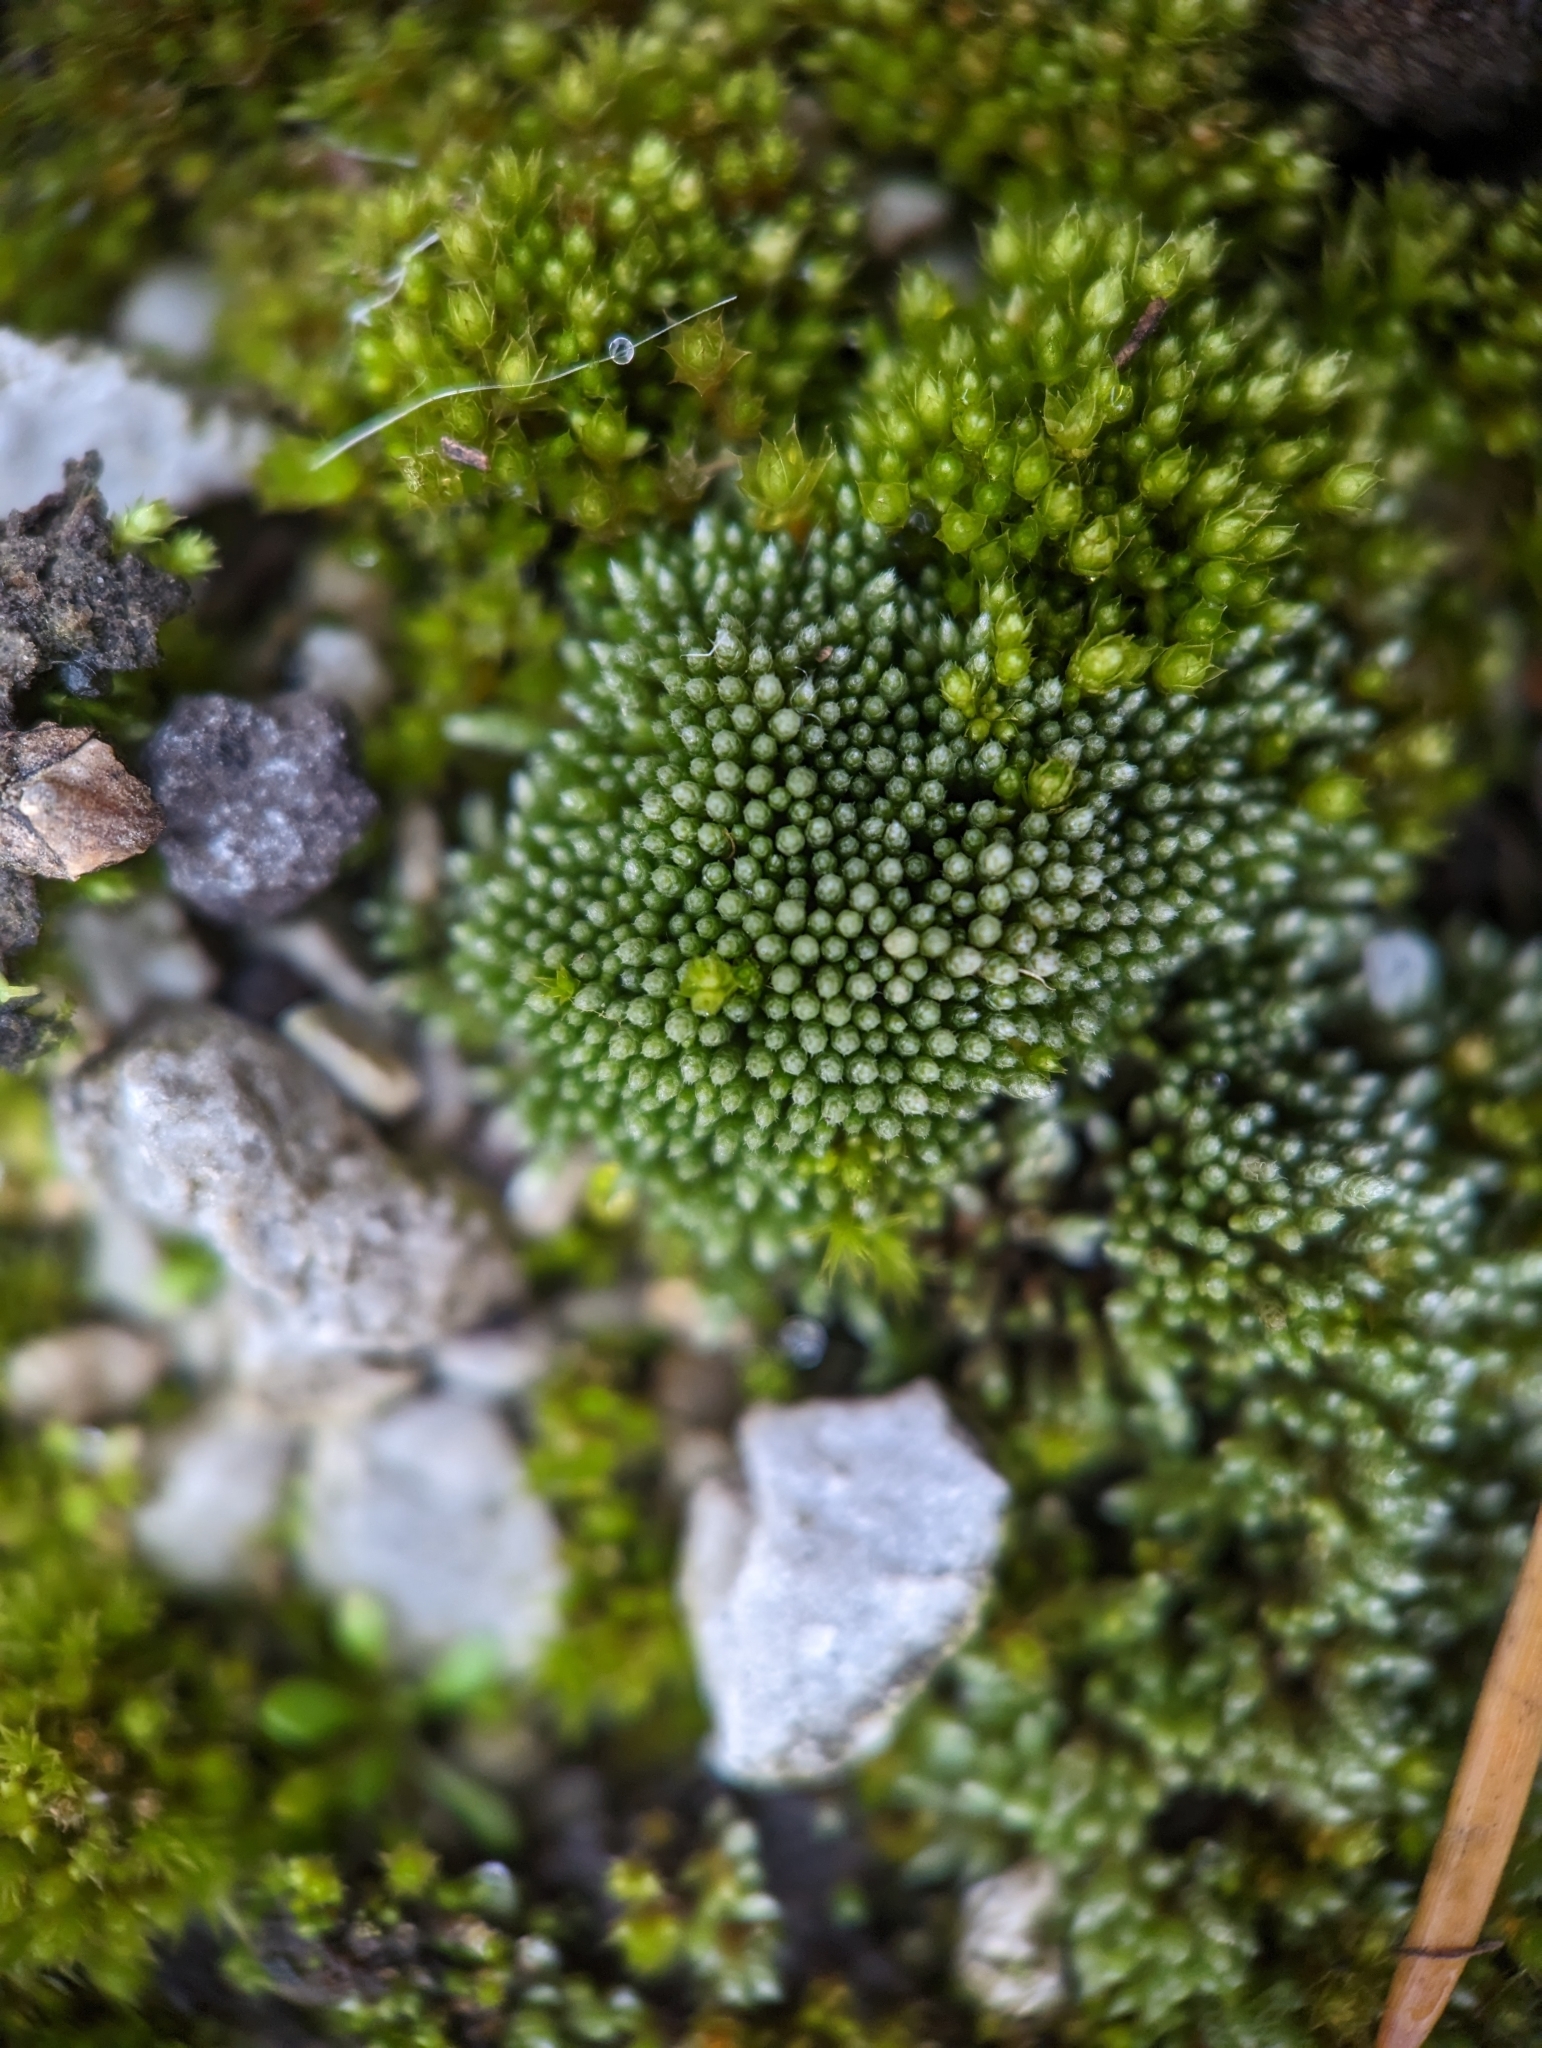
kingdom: Plantae
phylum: Bryophyta
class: Bryopsida
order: Bryales
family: Bryaceae
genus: Bryum
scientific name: Bryum argenteum
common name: Silver-moss
